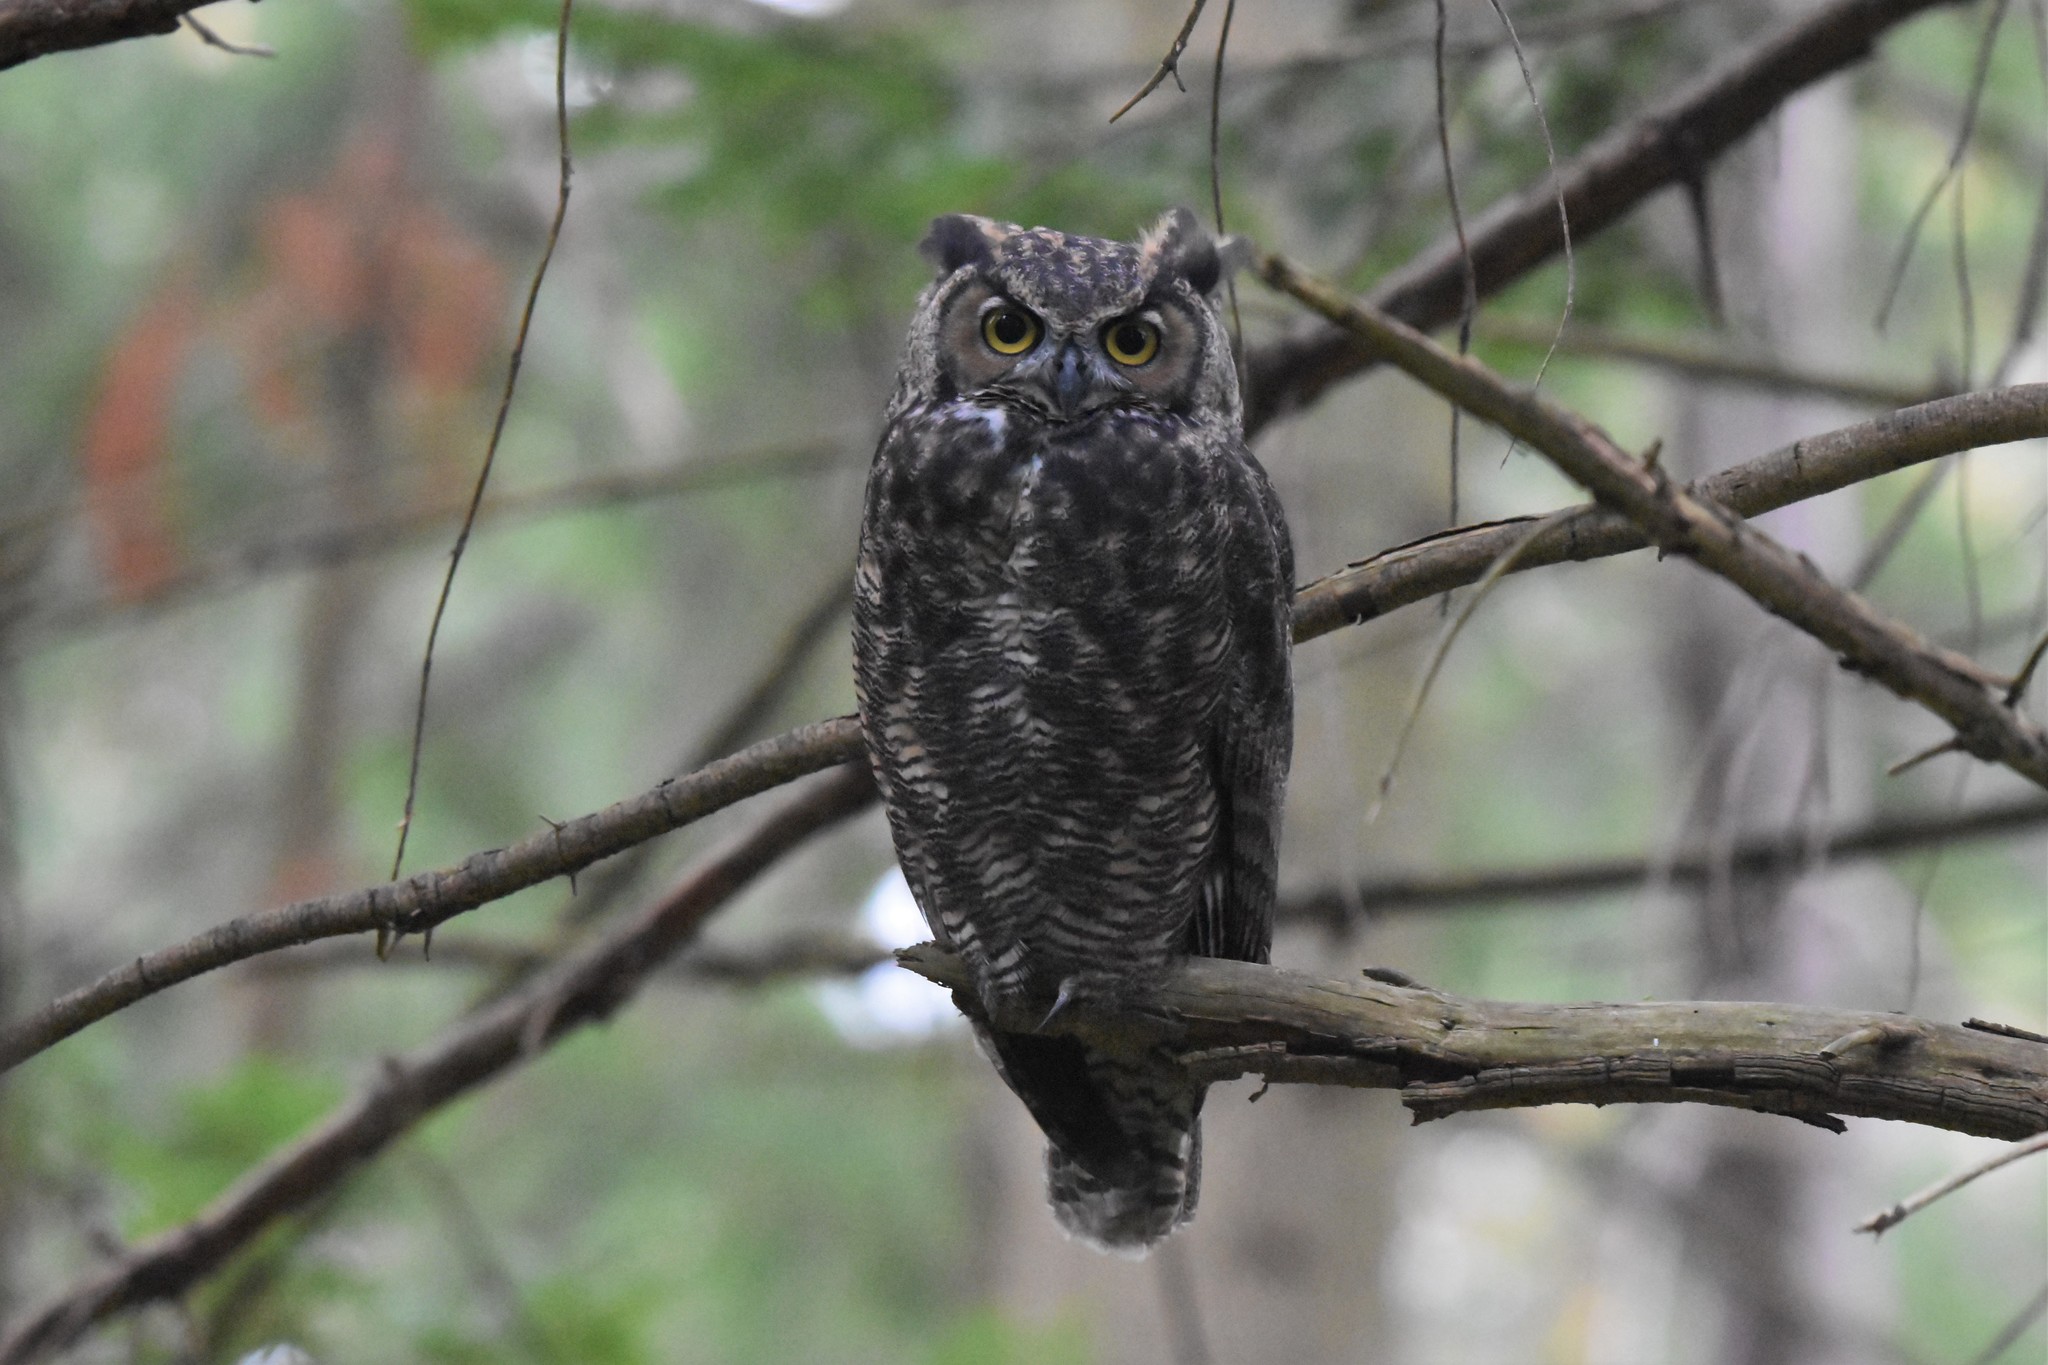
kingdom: Animalia
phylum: Chordata
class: Aves
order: Strigiformes
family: Strigidae
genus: Bubo
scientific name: Bubo virginianus
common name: Great horned owl
